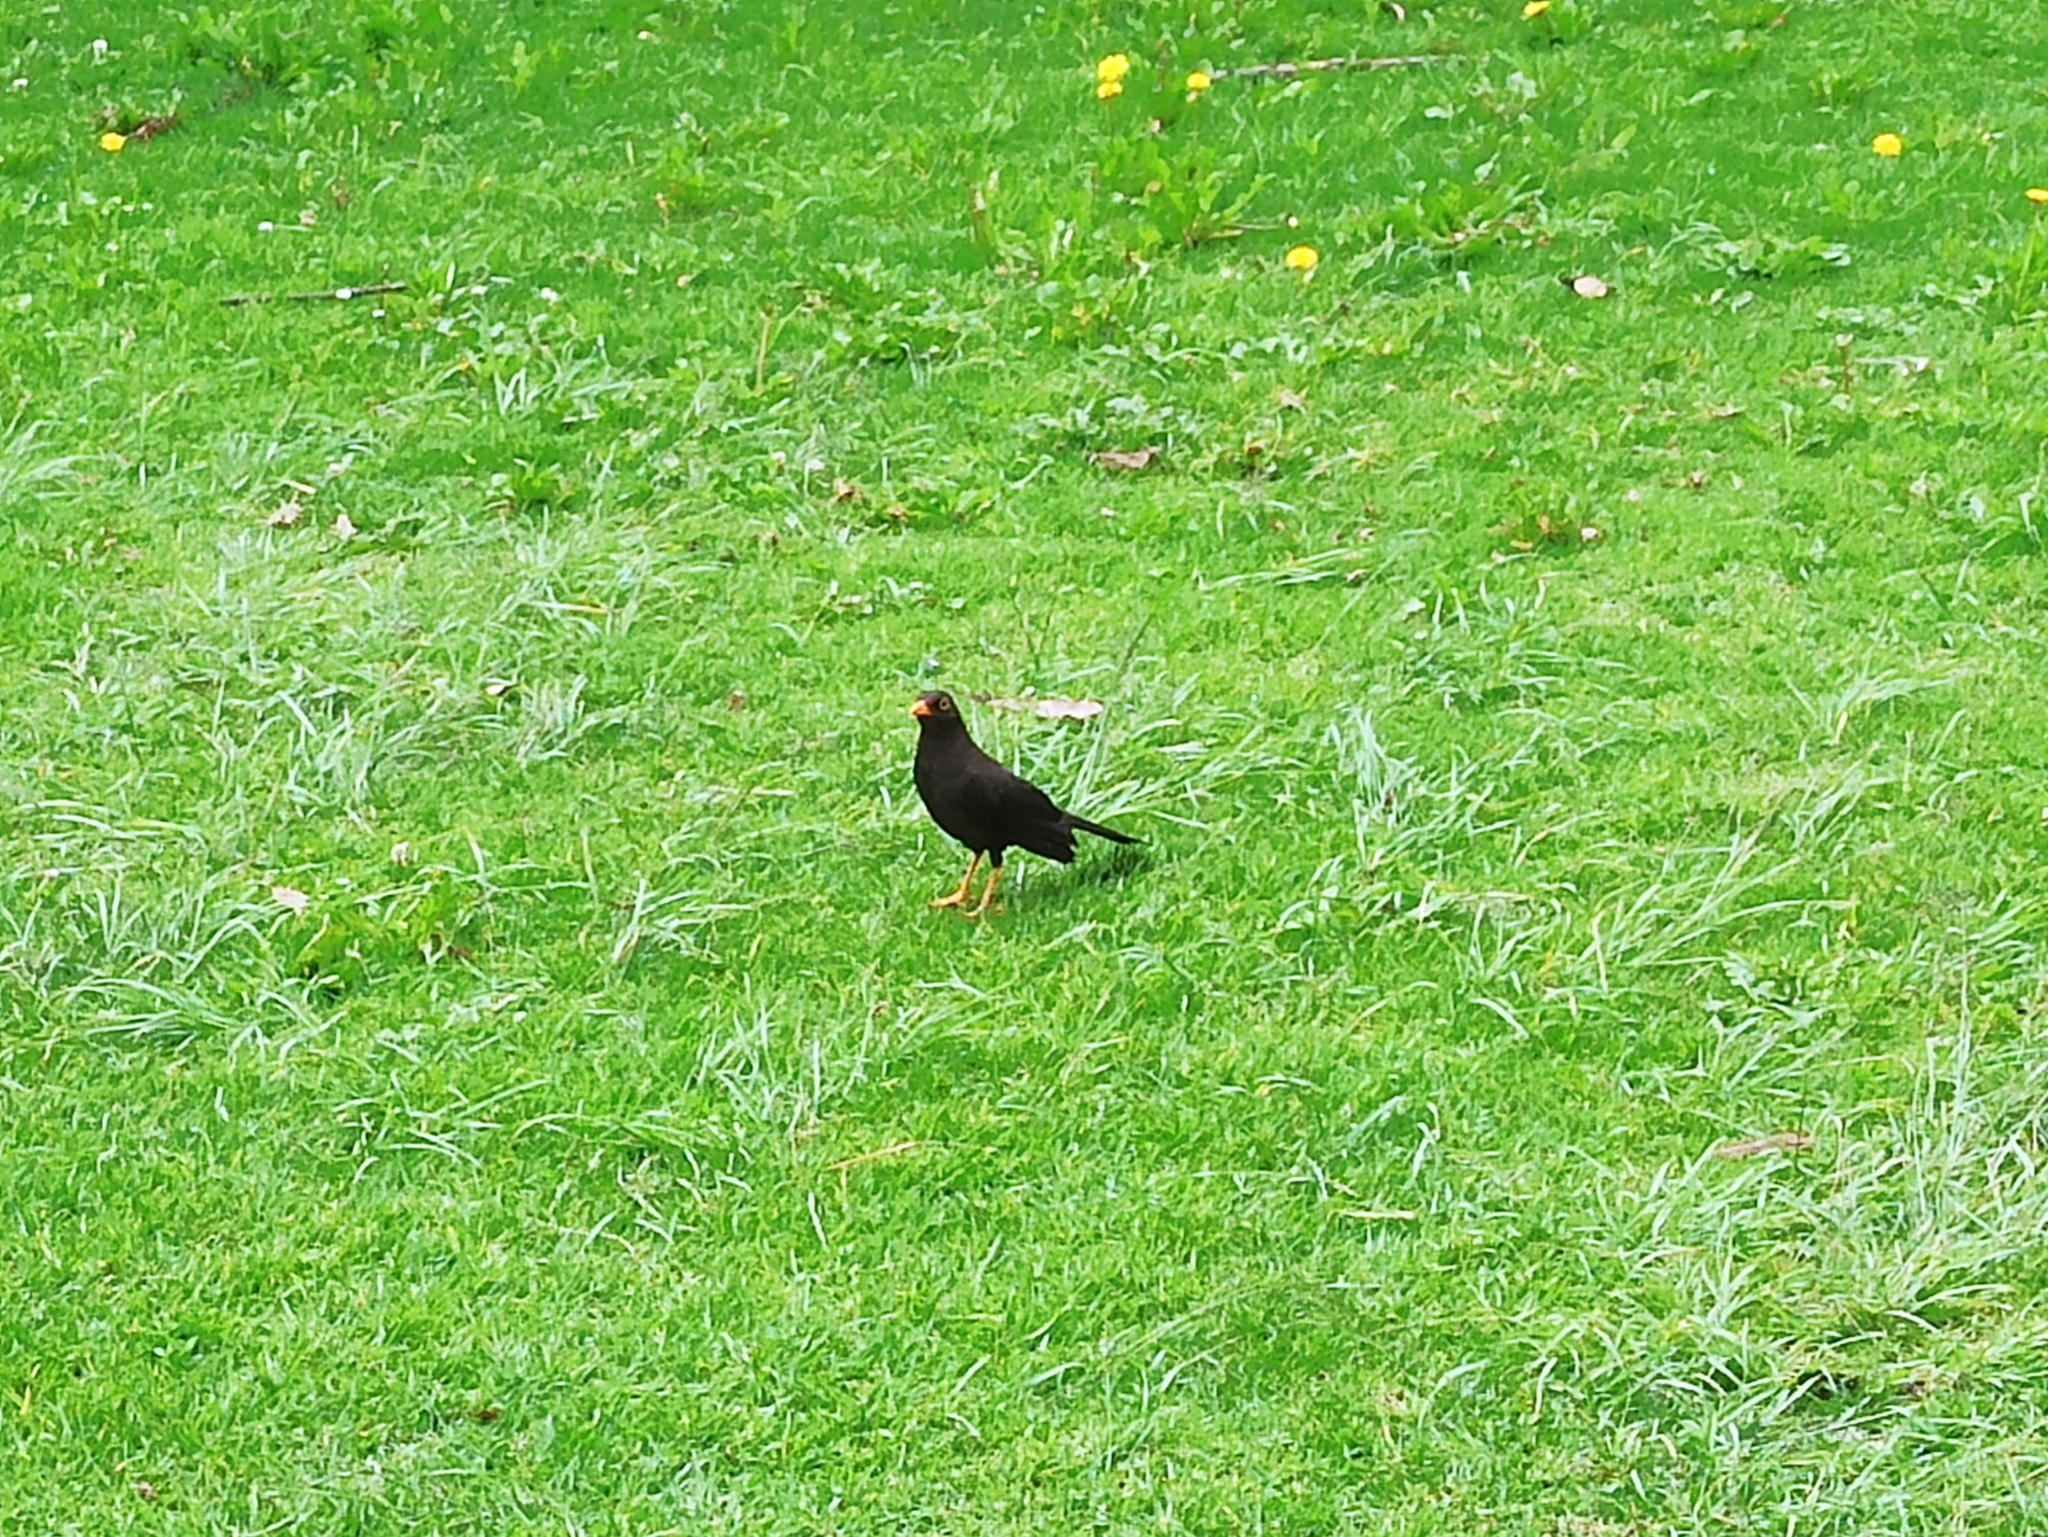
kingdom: Animalia
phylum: Chordata
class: Aves
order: Passeriformes
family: Turdidae
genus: Turdus
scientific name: Turdus fuscater
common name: Great thrush
